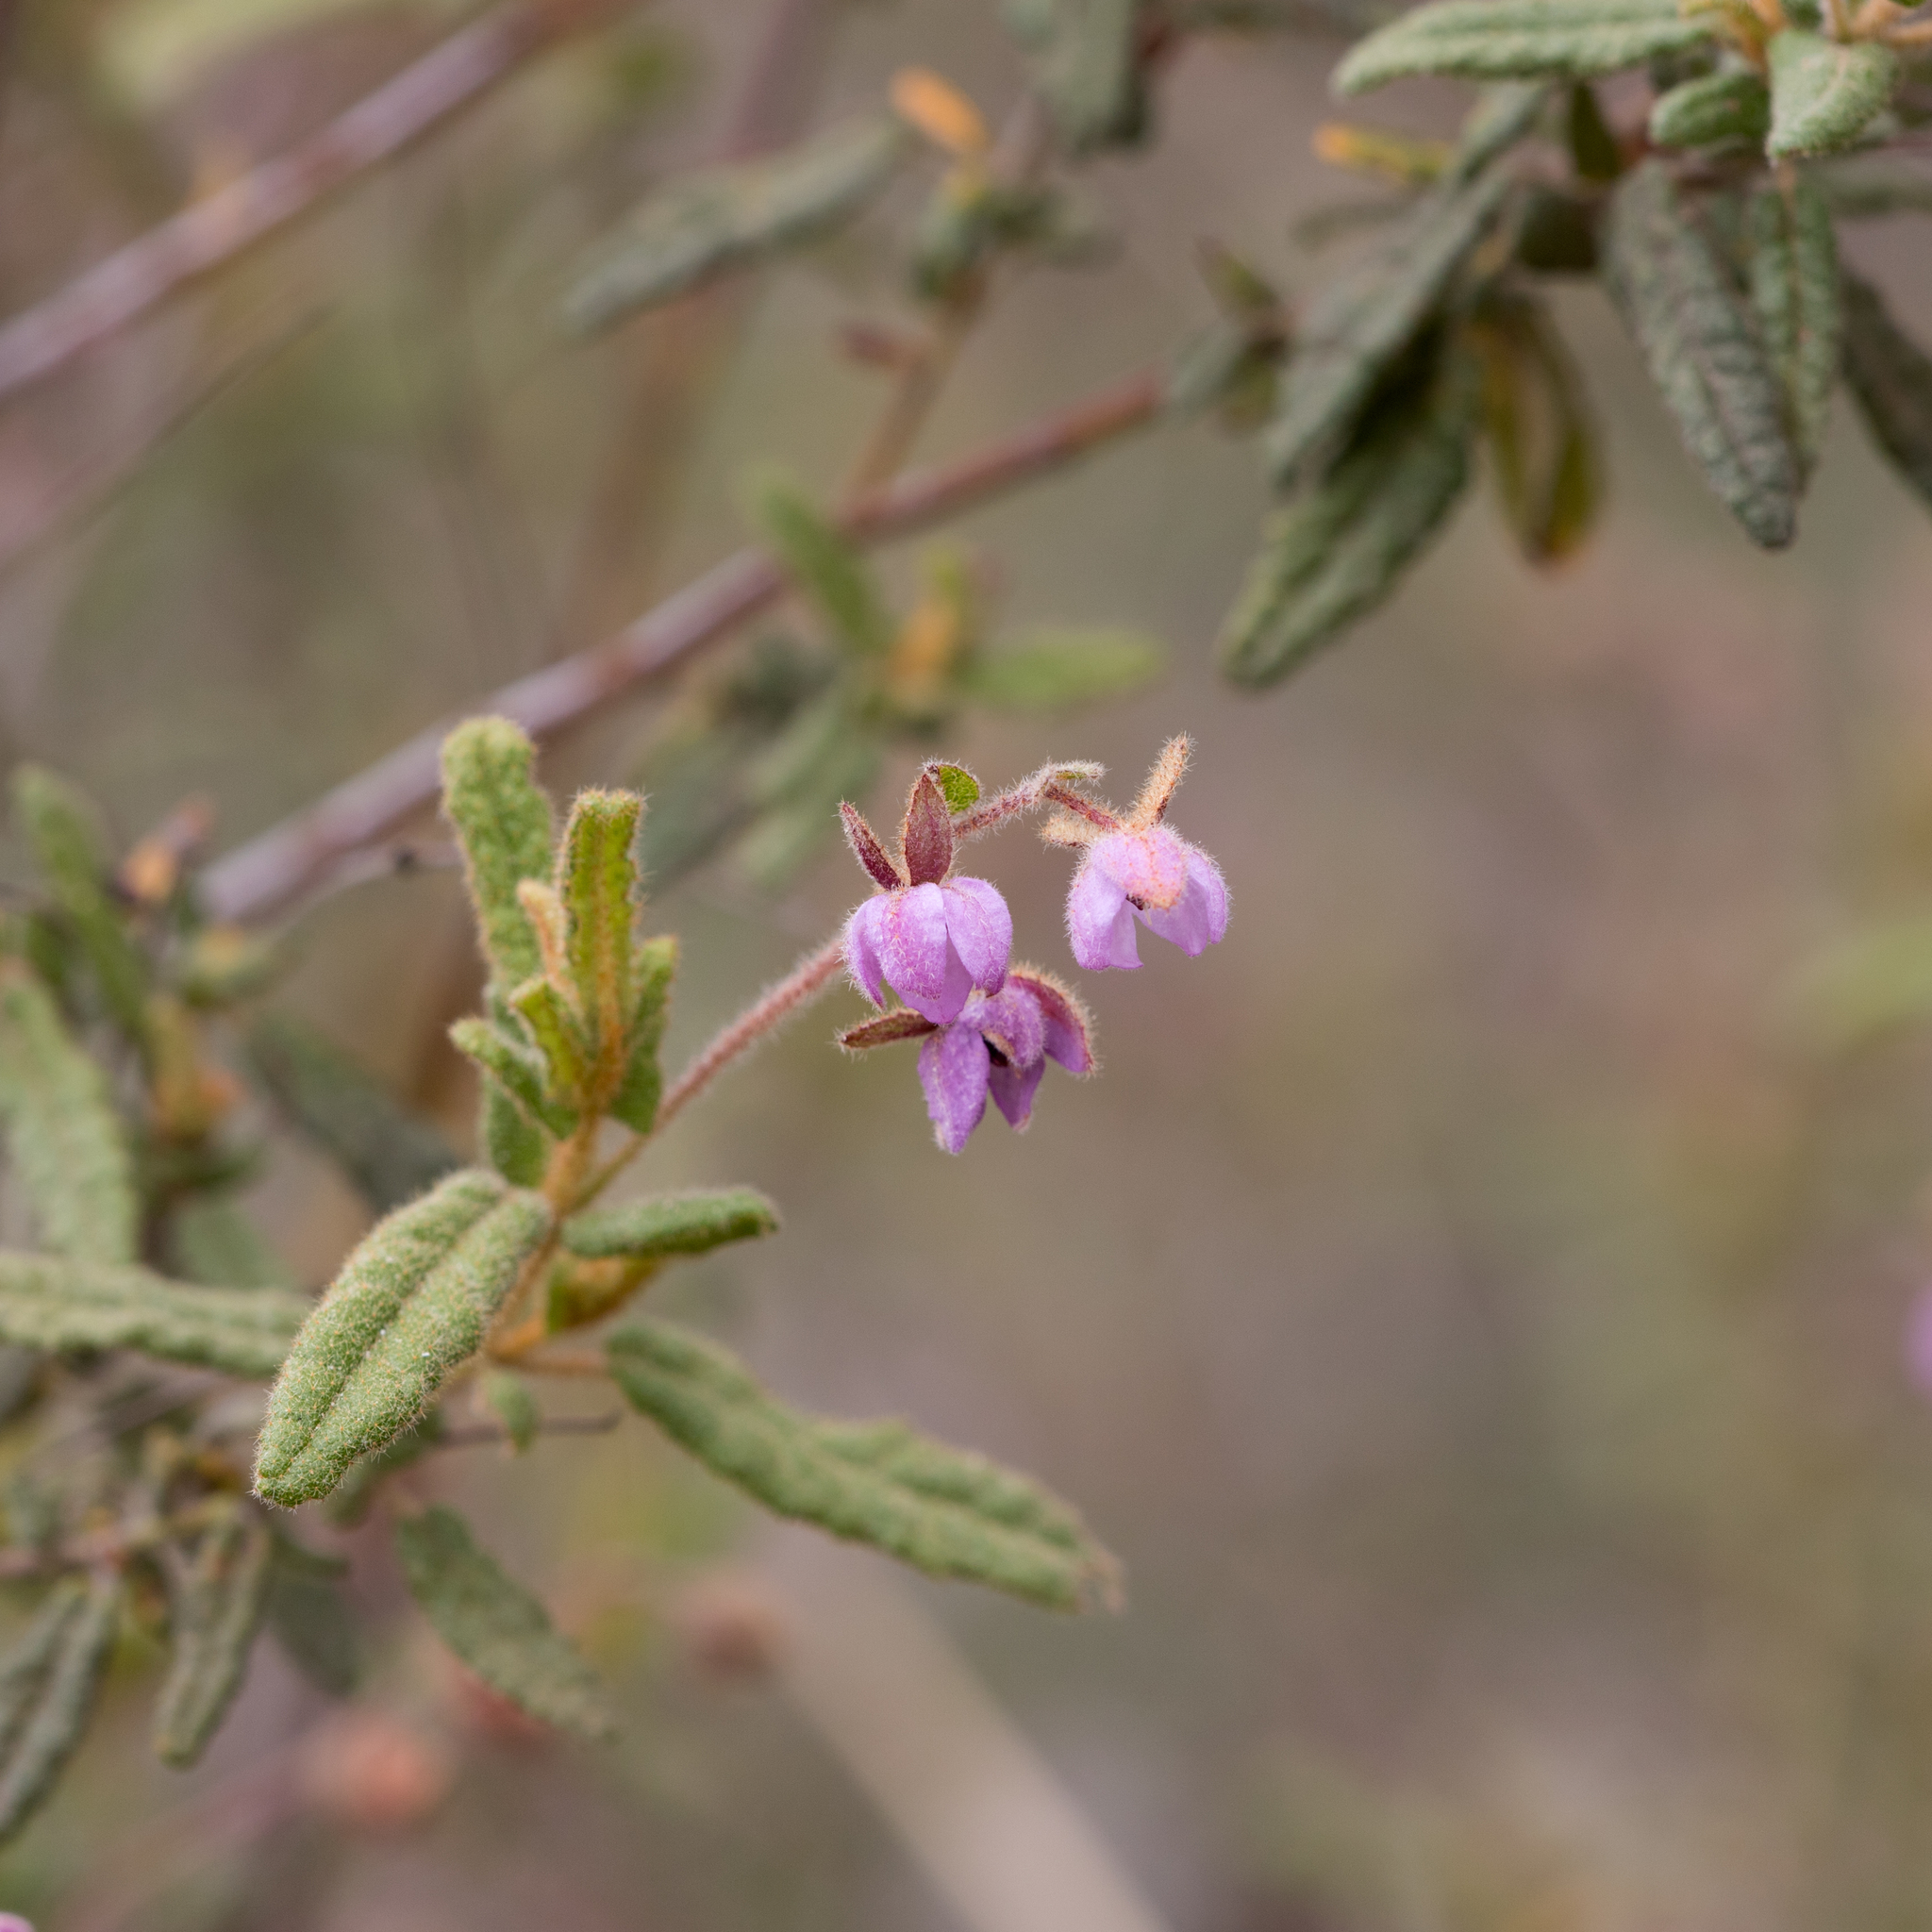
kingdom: Plantae
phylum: Tracheophyta
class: Magnoliopsida
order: Malvales
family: Malvaceae
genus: Thomasia
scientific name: Thomasia petalocalyx
